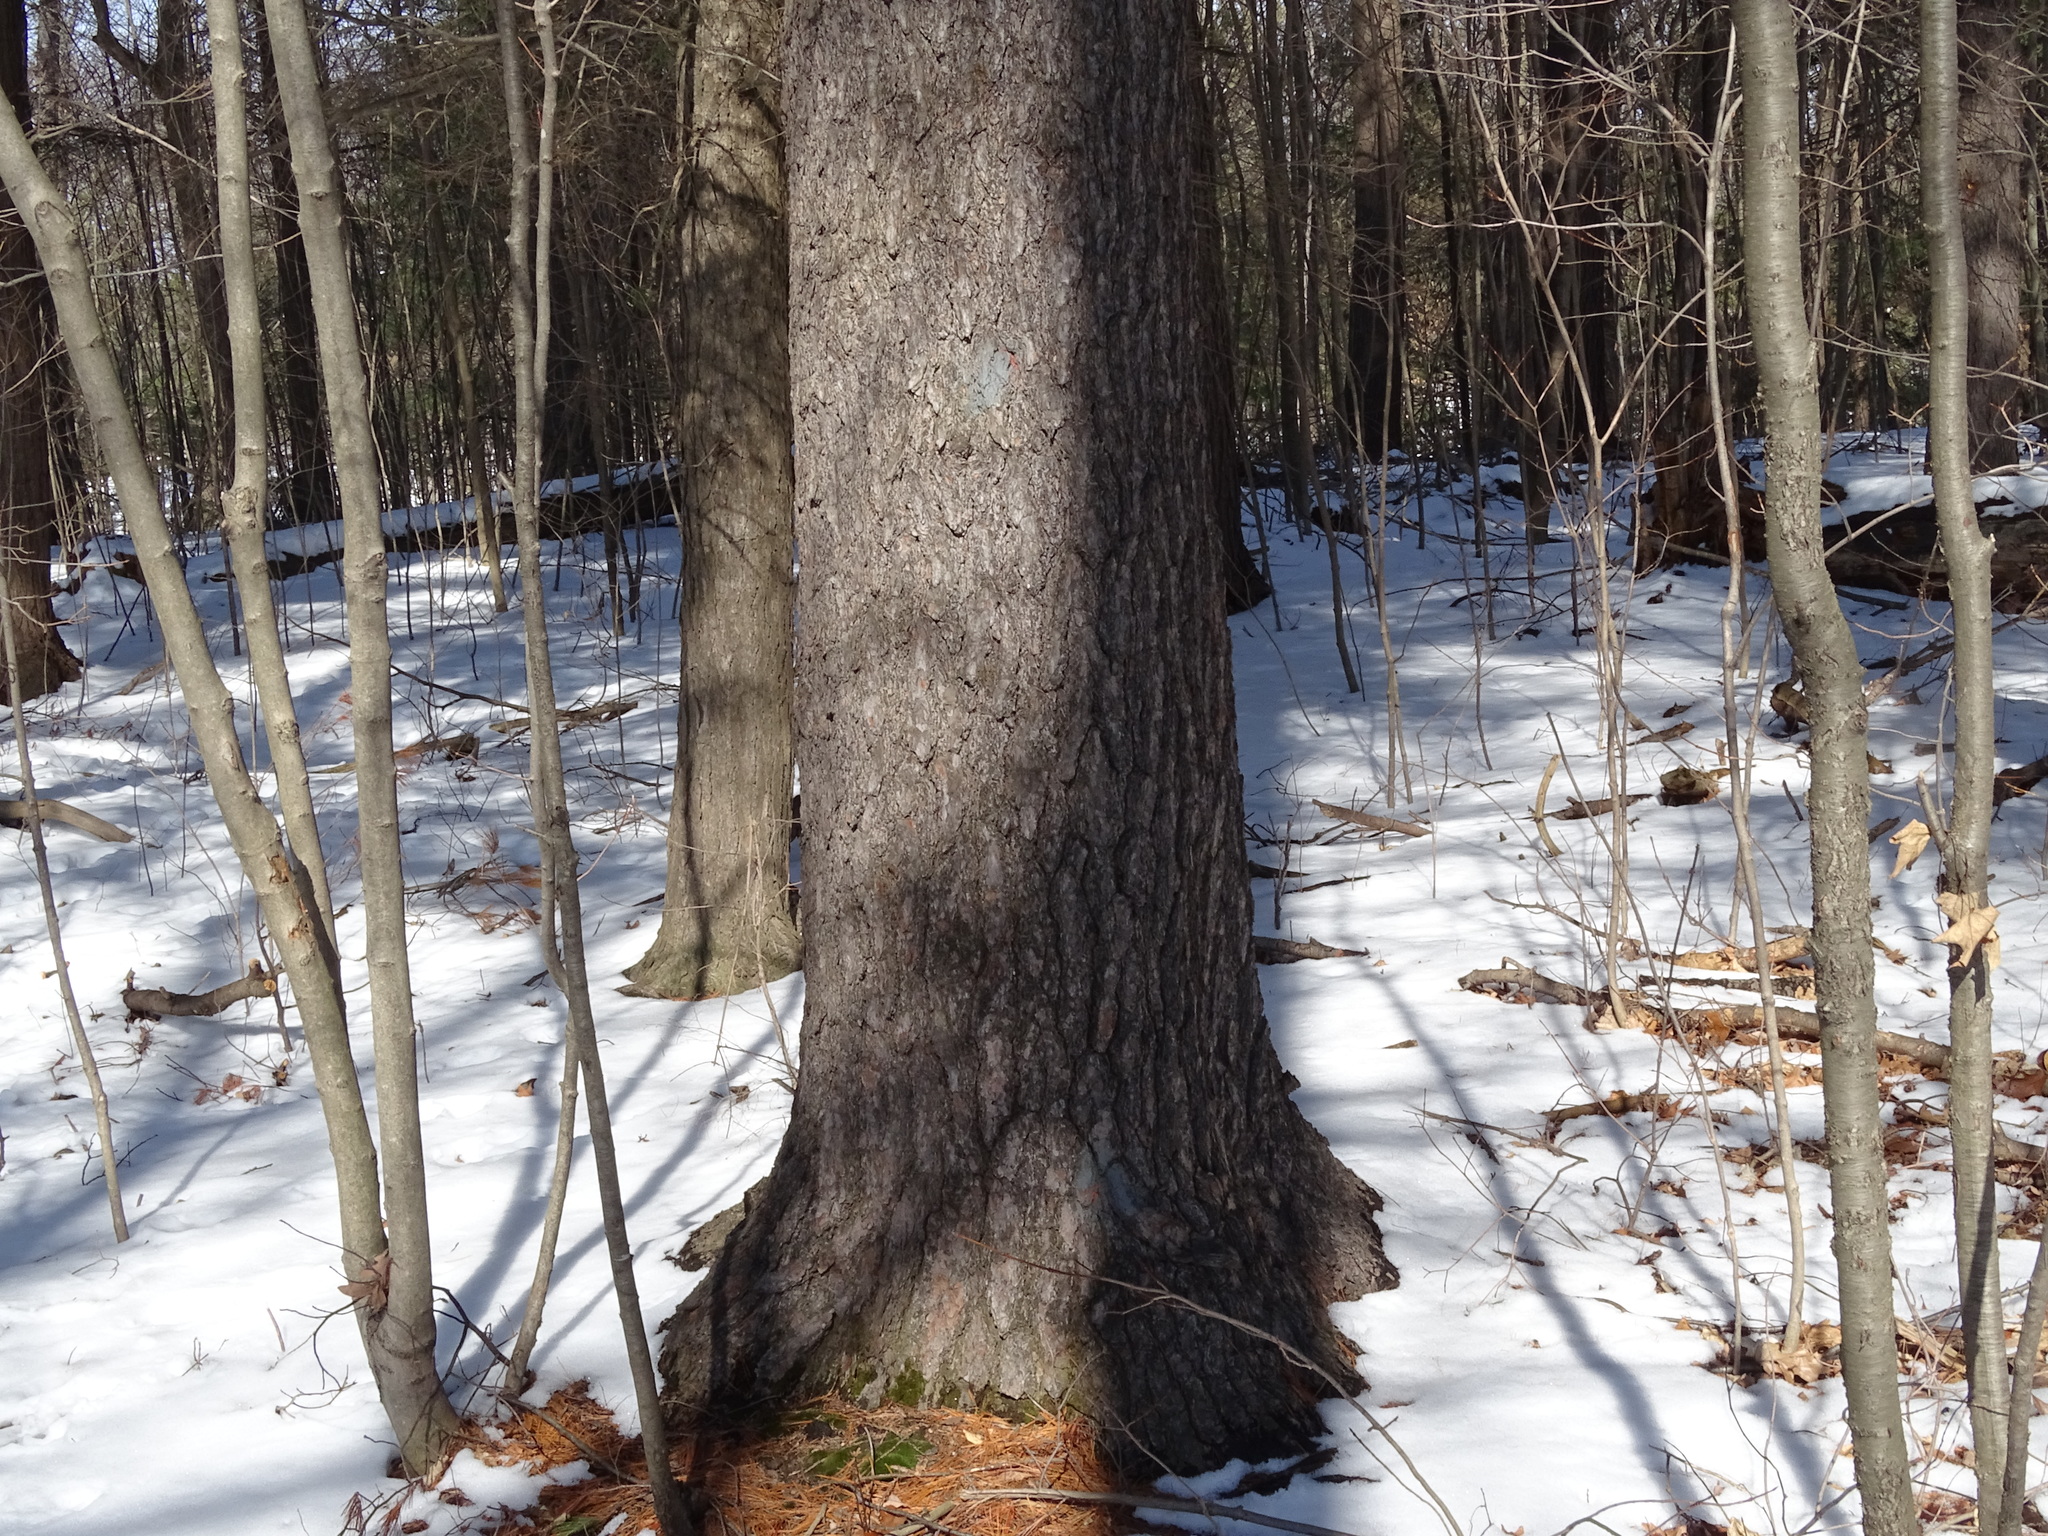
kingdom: Plantae
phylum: Tracheophyta
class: Pinopsida
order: Pinales
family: Pinaceae
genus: Pinus
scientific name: Pinus strobus
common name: Weymouth pine
